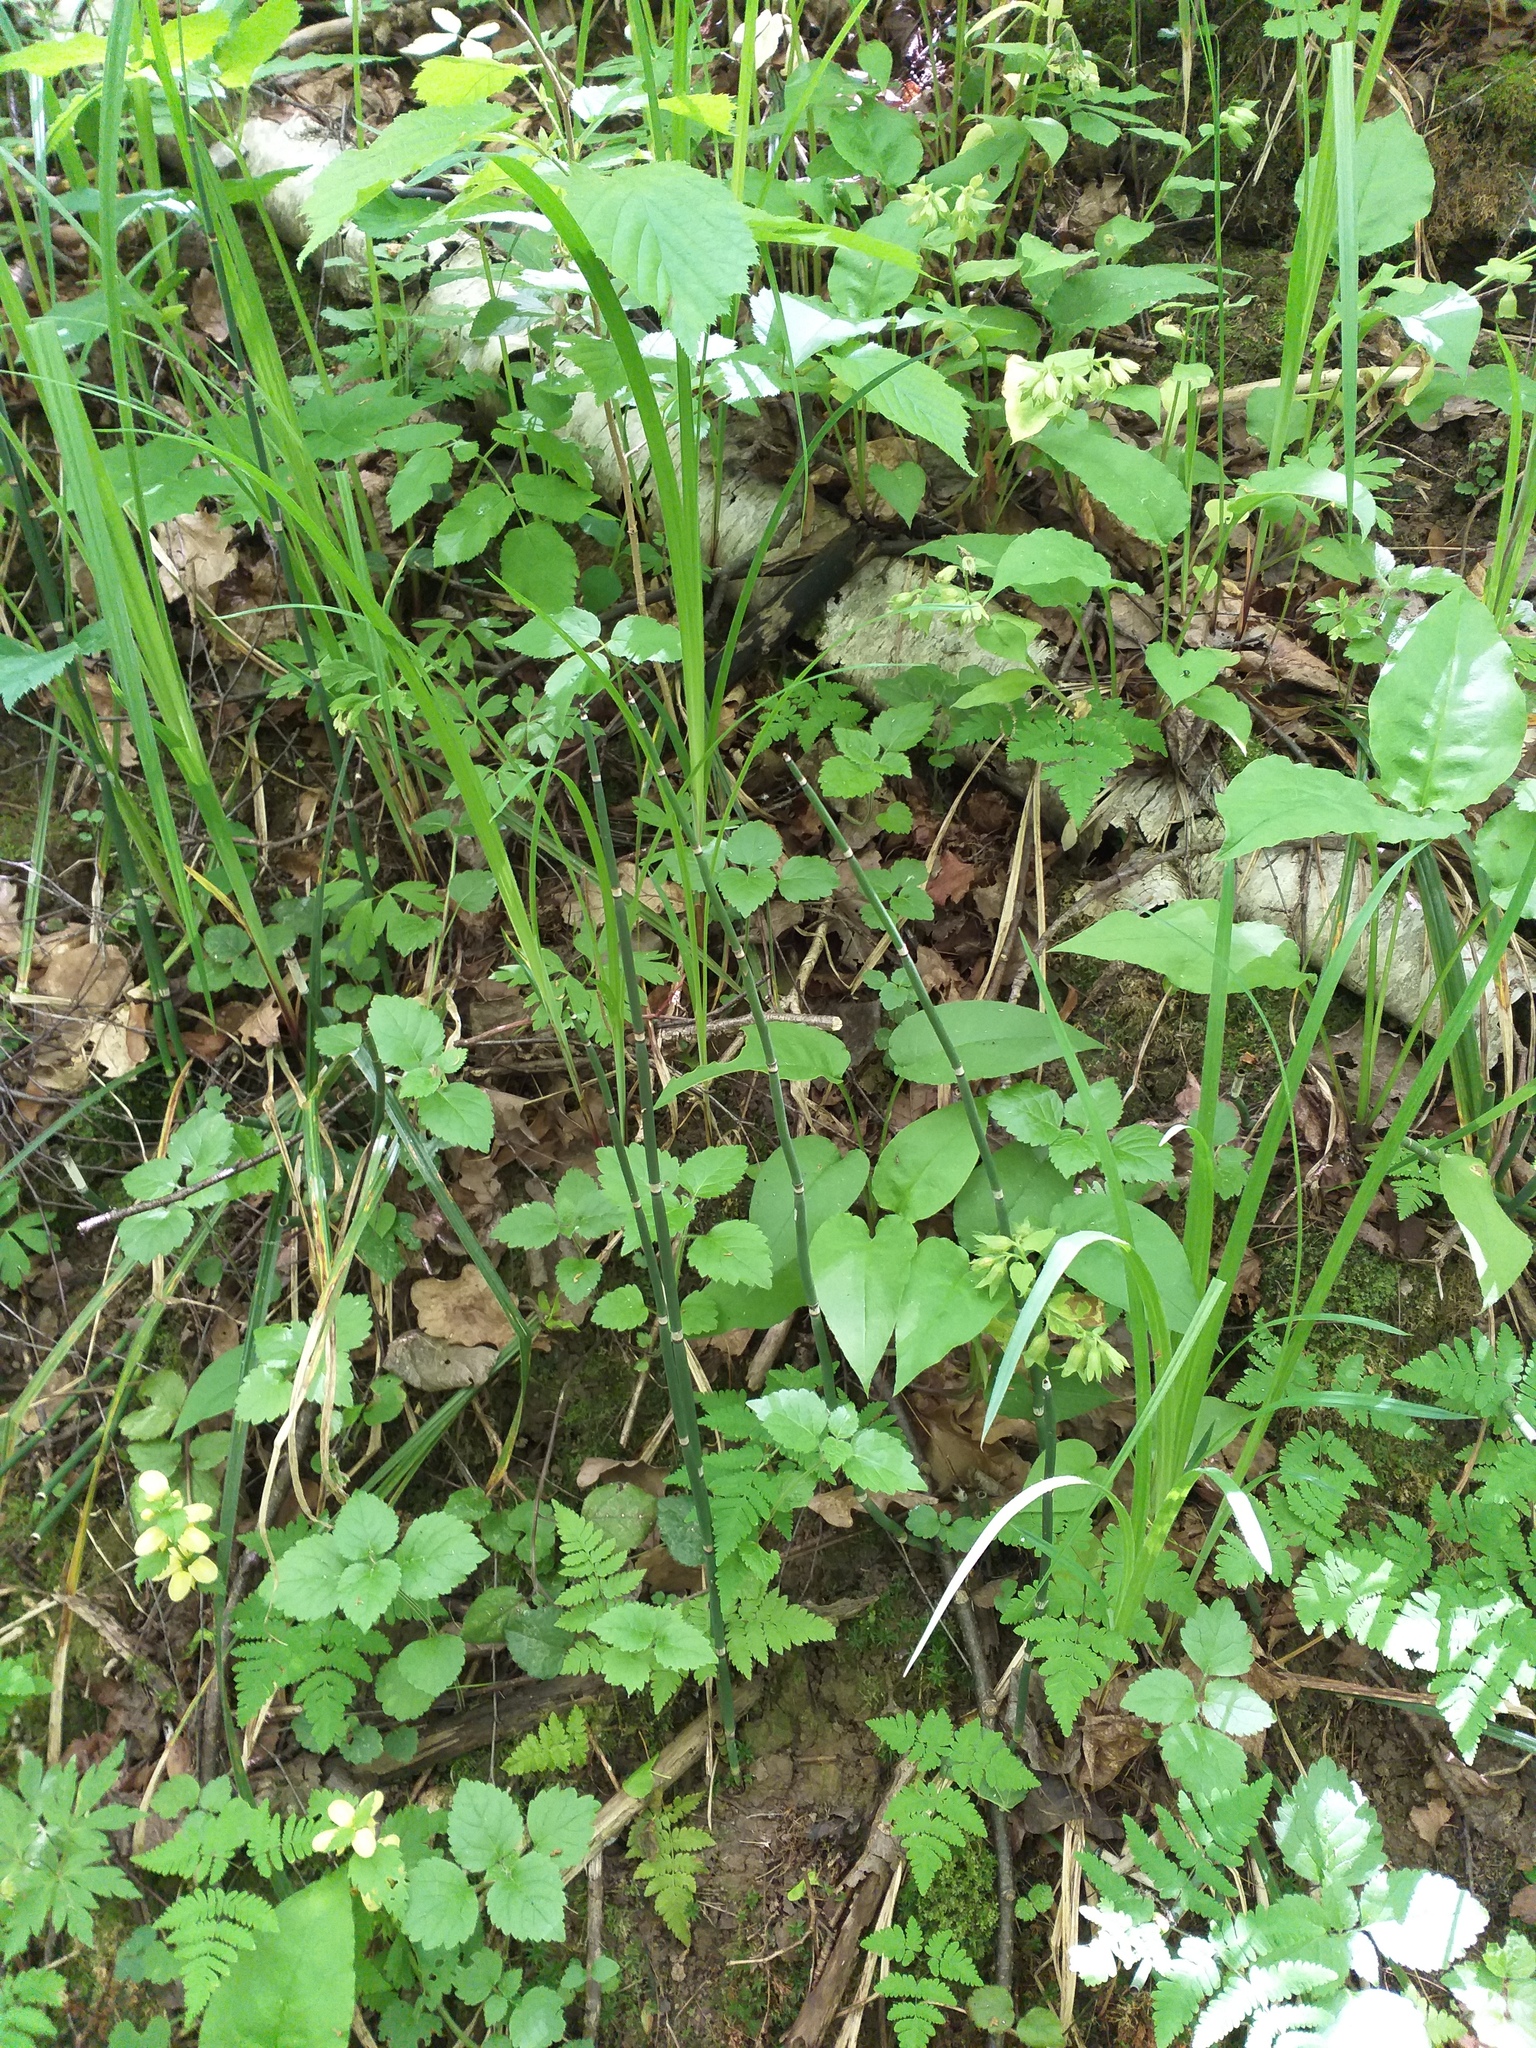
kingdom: Plantae
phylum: Tracheophyta
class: Polypodiopsida
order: Equisetales
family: Equisetaceae
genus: Equisetum
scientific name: Equisetum hyemale
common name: Rough horsetail
